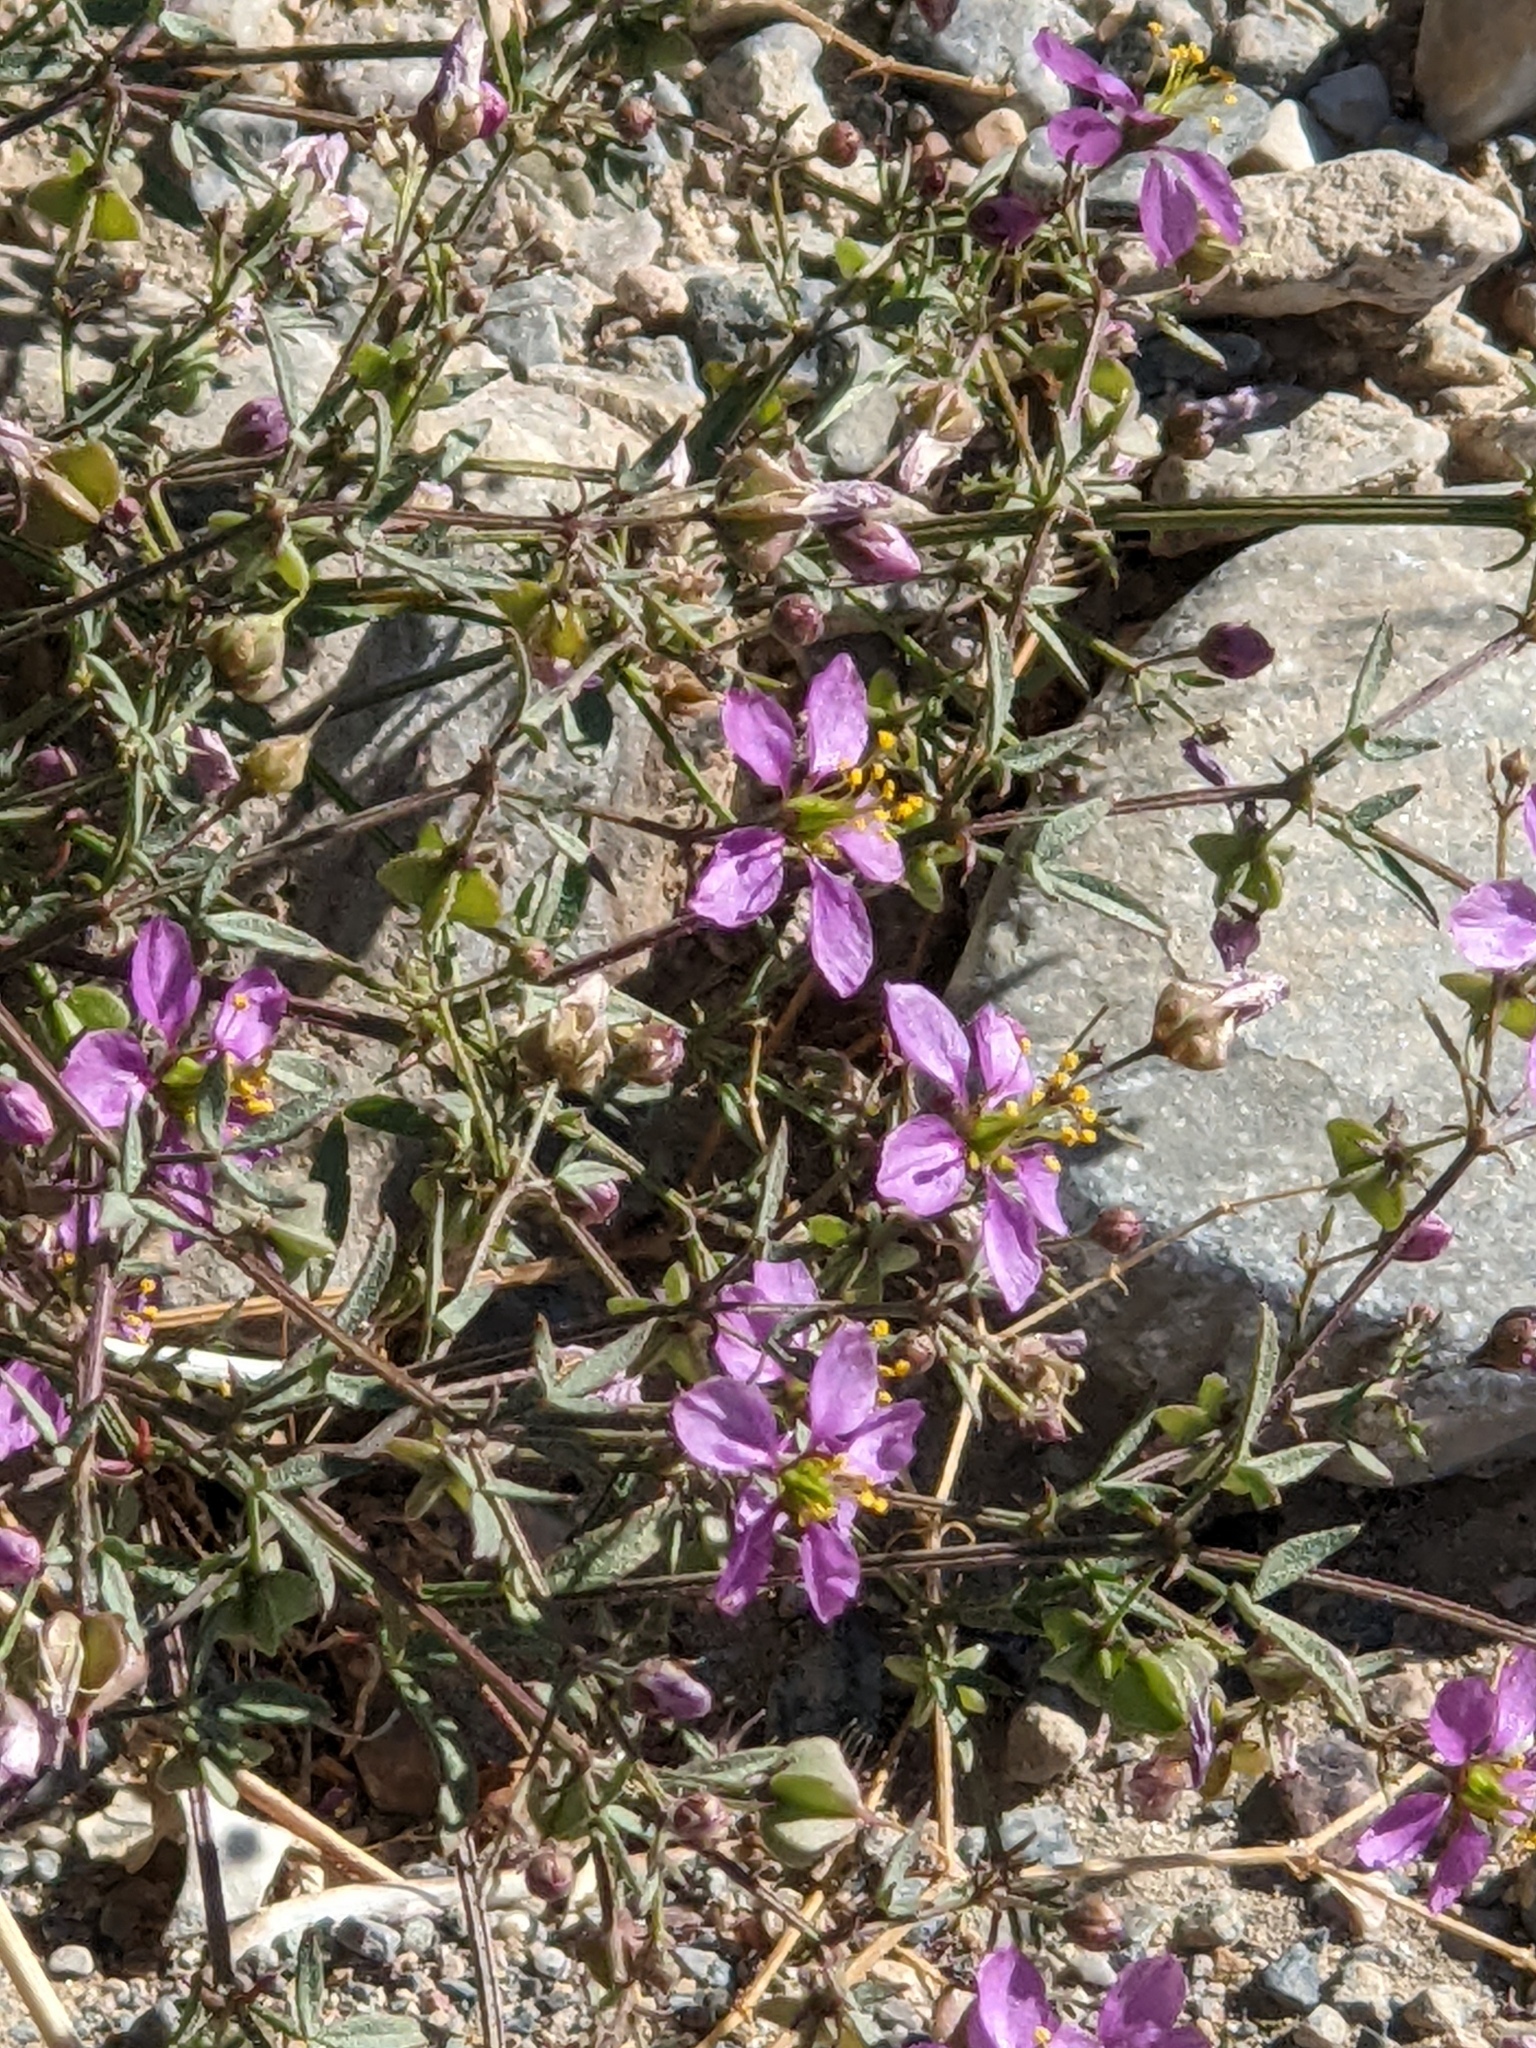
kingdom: Plantae
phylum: Tracheophyta
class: Magnoliopsida
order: Zygophyllales
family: Zygophyllaceae
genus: Fagonia
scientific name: Fagonia laevis
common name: California fagonbush
